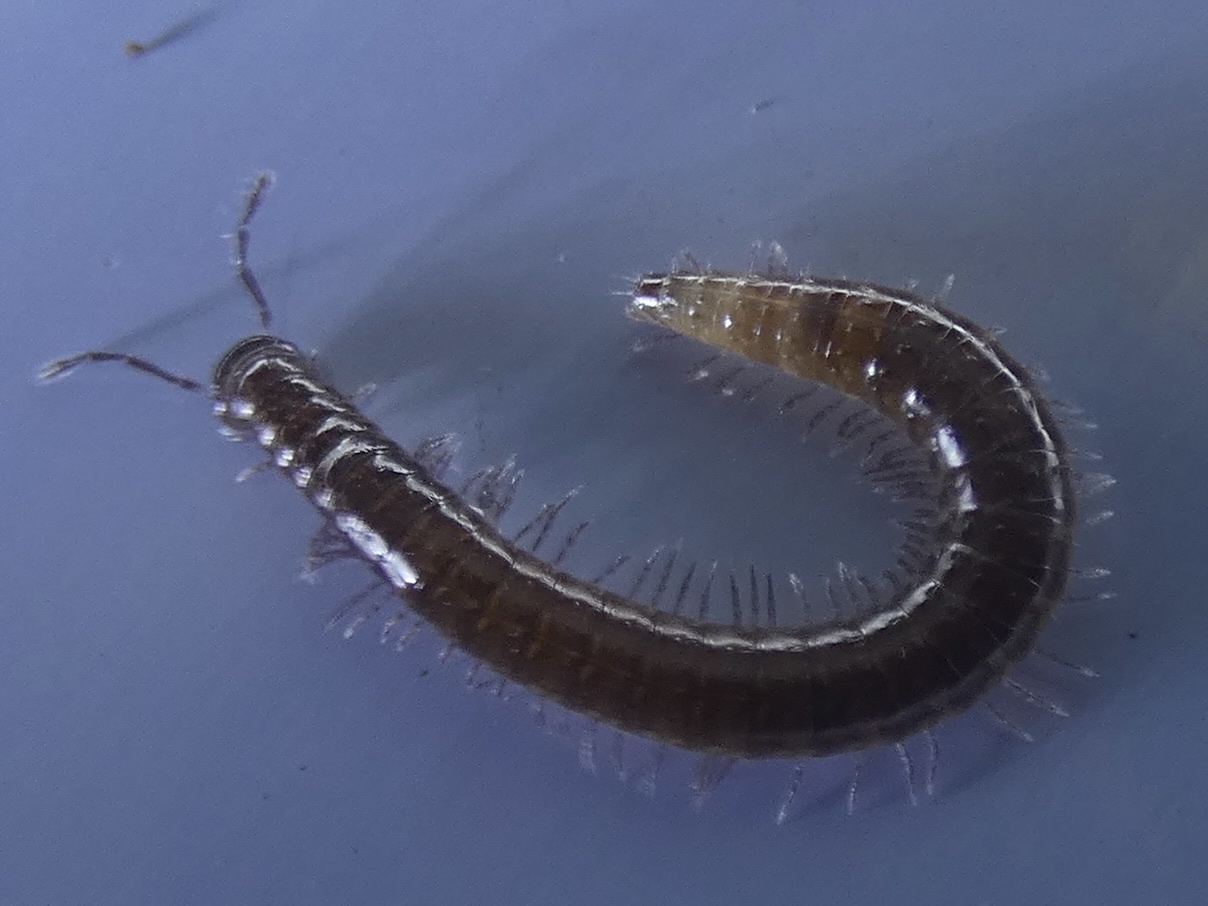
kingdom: Animalia
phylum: Arthropoda
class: Diplopoda
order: Chordeumatida
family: Chordeumatidae
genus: Chordeuma
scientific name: Chordeuma
